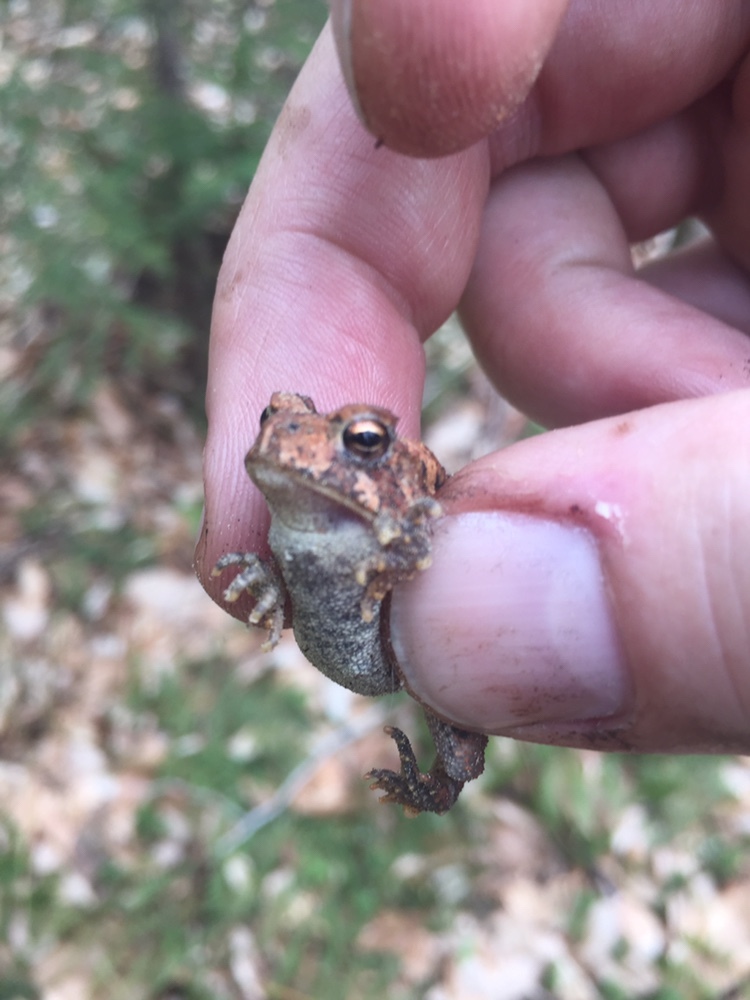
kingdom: Animalia
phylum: Chordata
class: Amphibia
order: Anura
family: Bufonidae
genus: Anaxyrus
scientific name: Anaxyrus americanus
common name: American toad
